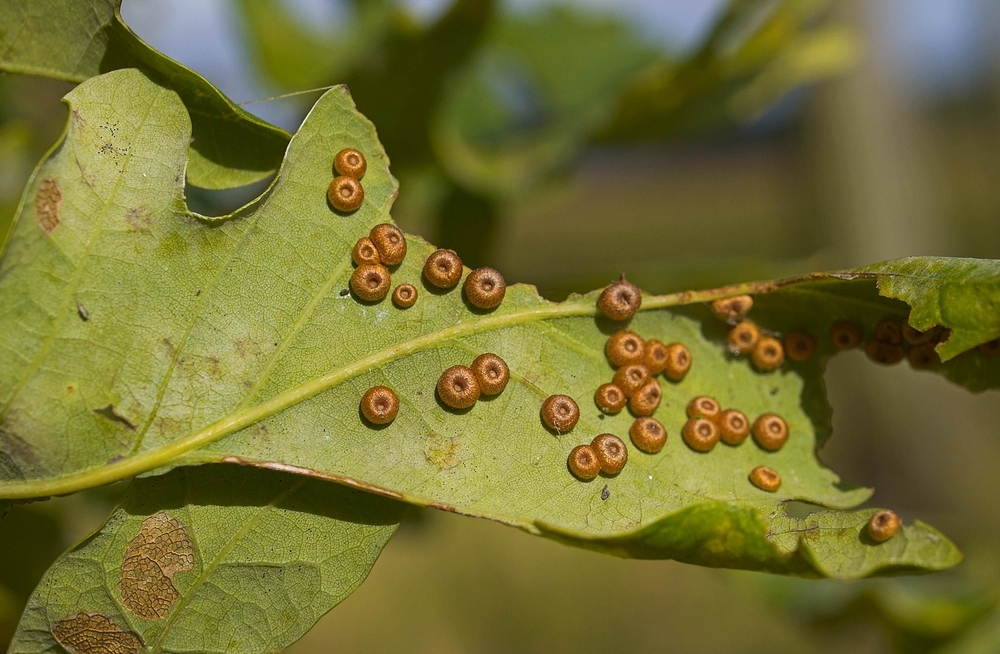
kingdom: Animalia
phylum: Arthropoda
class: Insecta
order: Hymenoptera
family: Cynipidae
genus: Neuroterus
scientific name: Neuroterus numismalis
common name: Silk-button spangle gall
